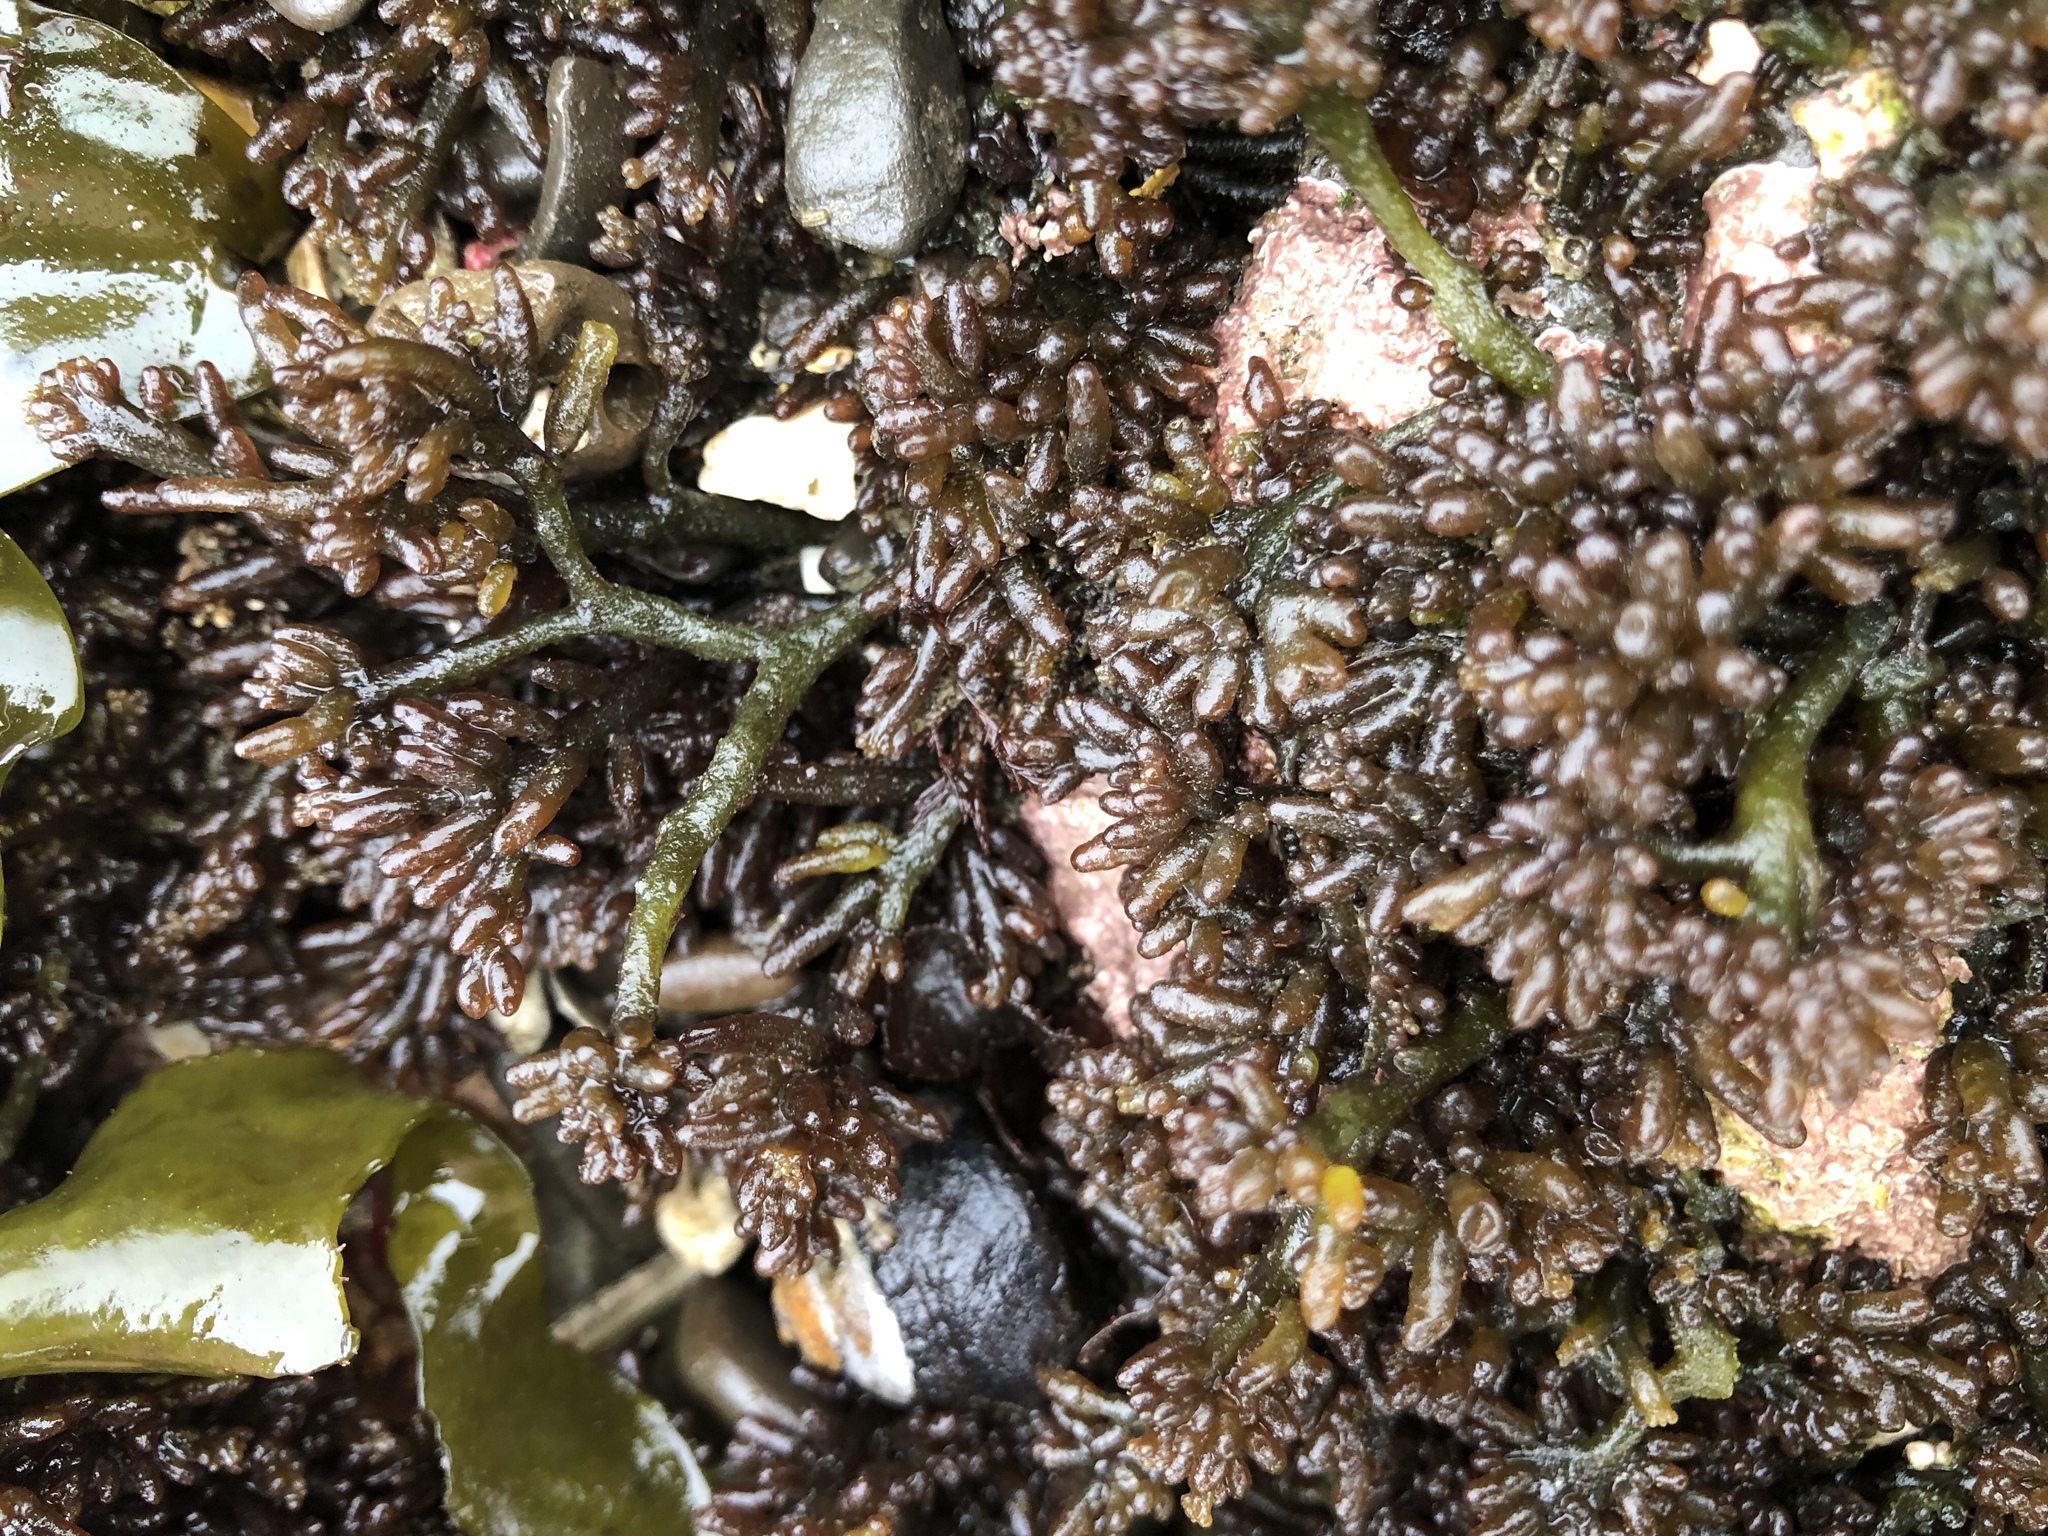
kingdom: Plantae
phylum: Rhodophyta
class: Florideophyceae
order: Rhodymeniales
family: Champiaceae
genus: Neogastroclonium
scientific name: Neogastroclonium subarticulatum
